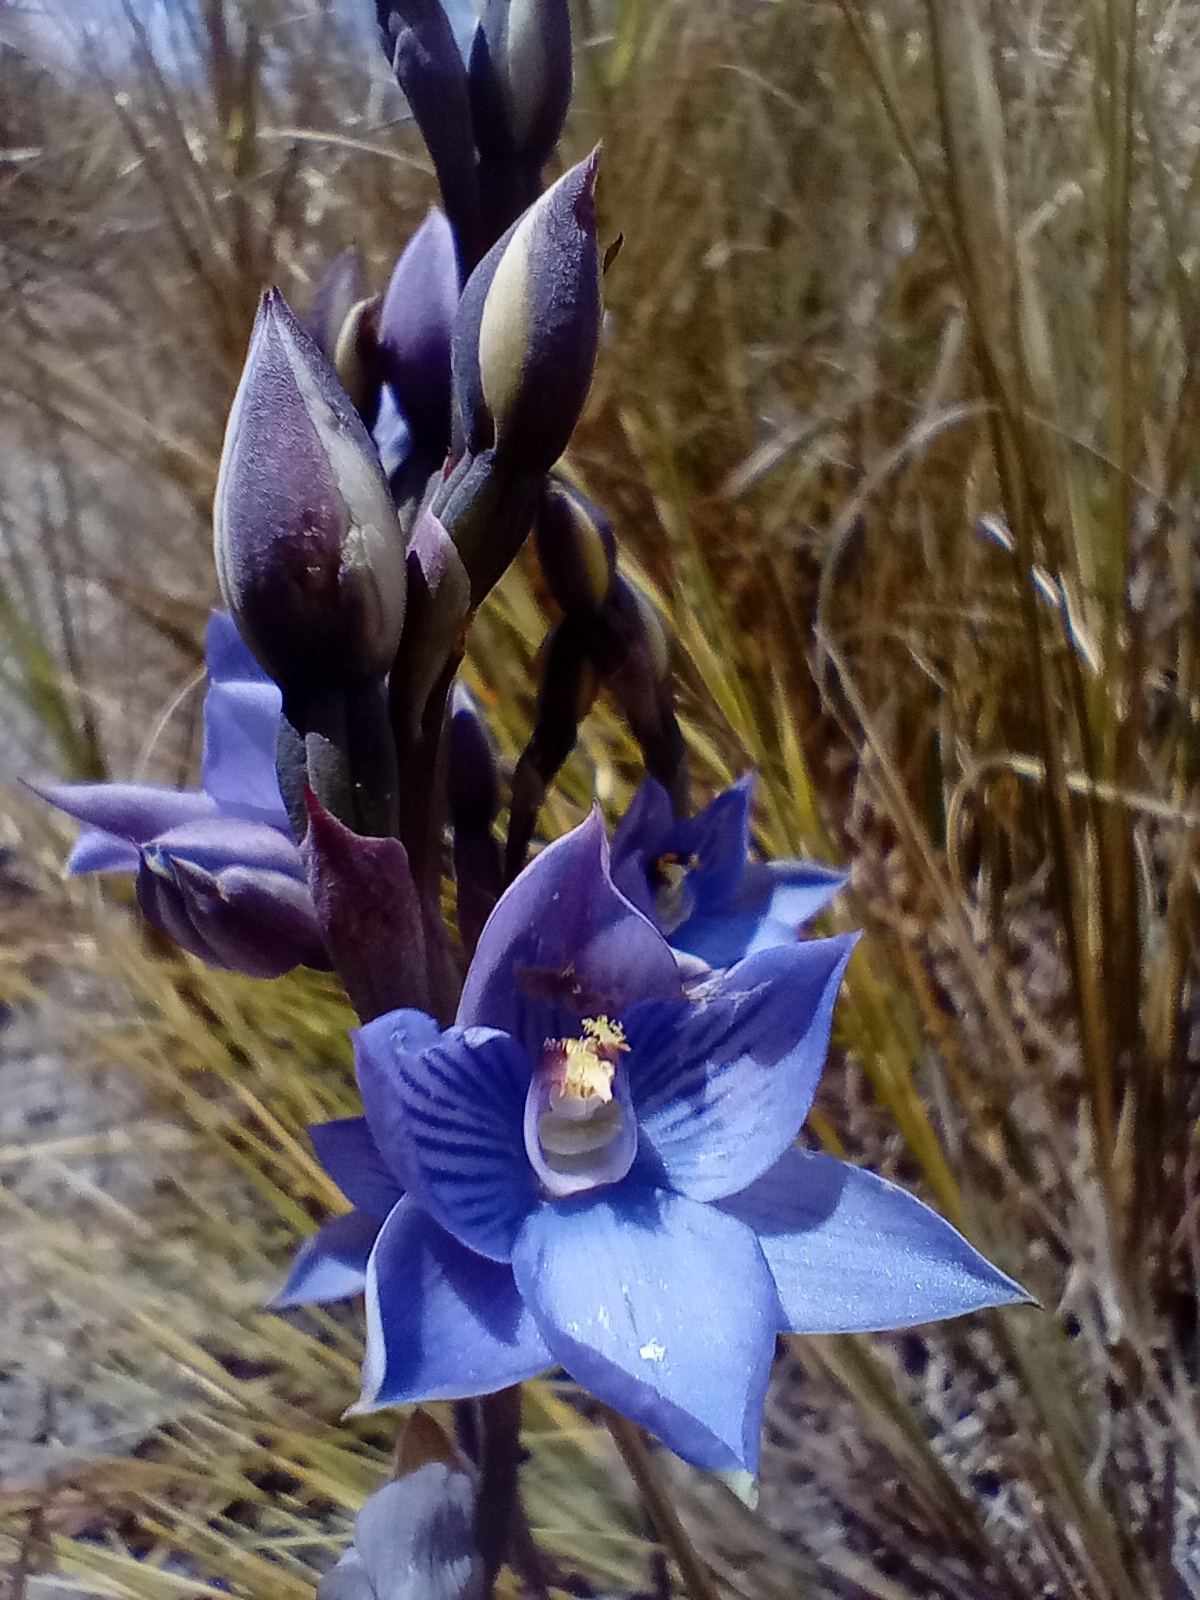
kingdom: Plantae
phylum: Tracheophyta
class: Liliopsida
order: Asparagales
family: Orchidaceae
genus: Thelymitra
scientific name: Thelymitra pulchella
